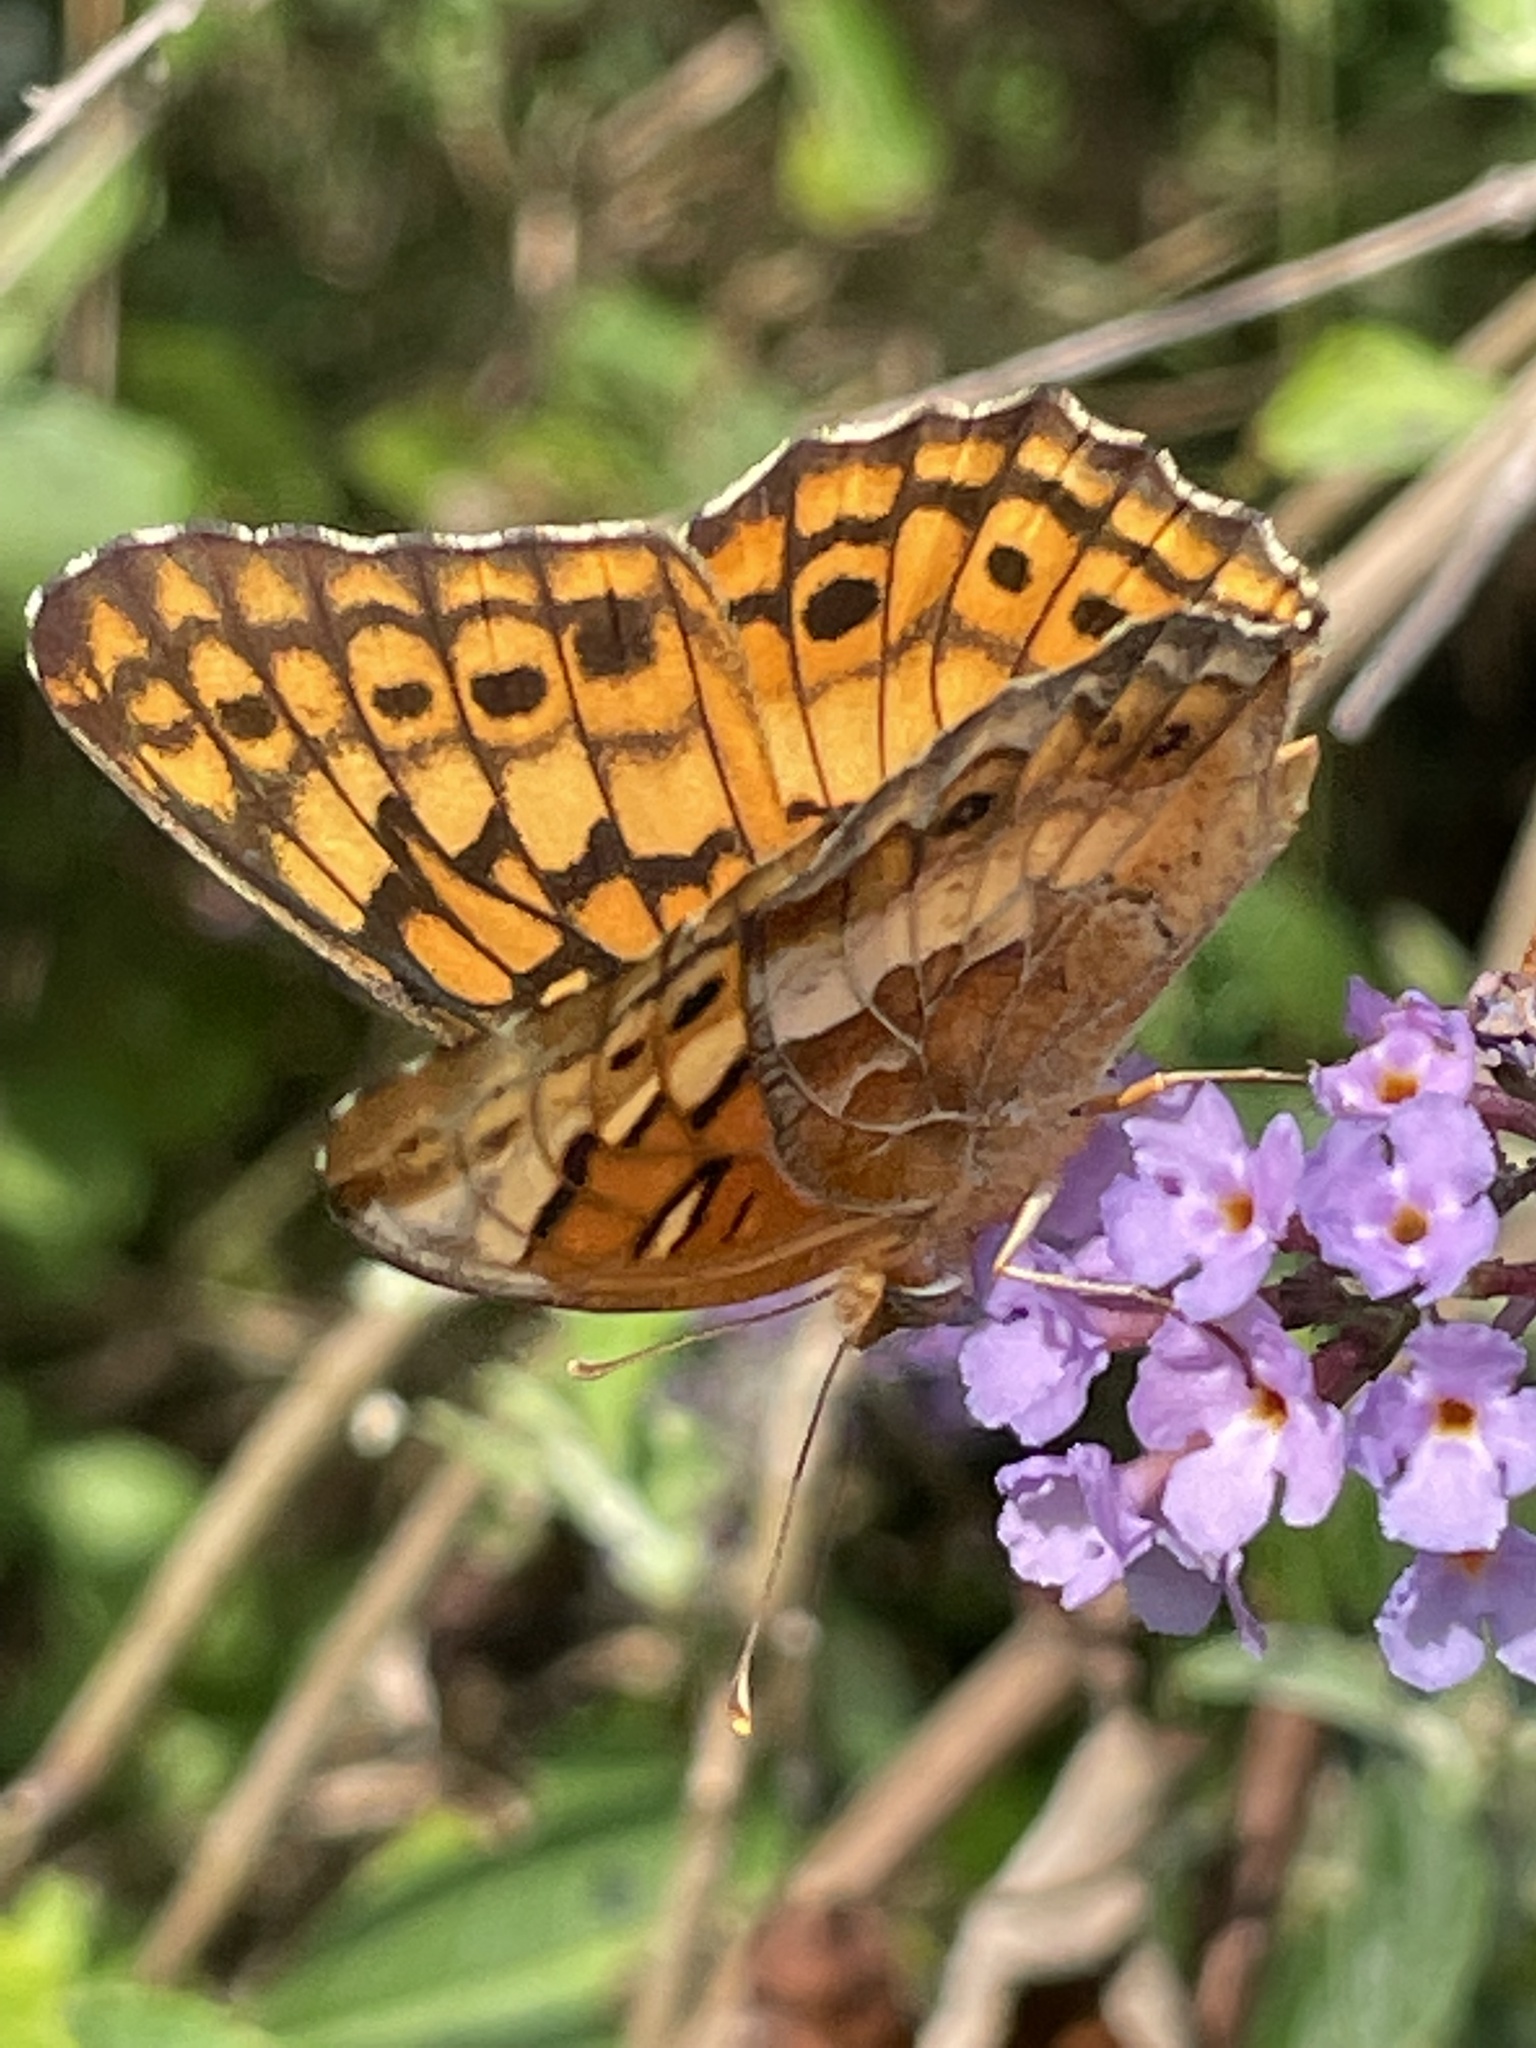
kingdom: Animalia
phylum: Arthropoda
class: Insecta
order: Lepidoptera
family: Nymphalidae
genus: Euptoieta
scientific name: Euptoieta claudia
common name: Variegated fritillary
